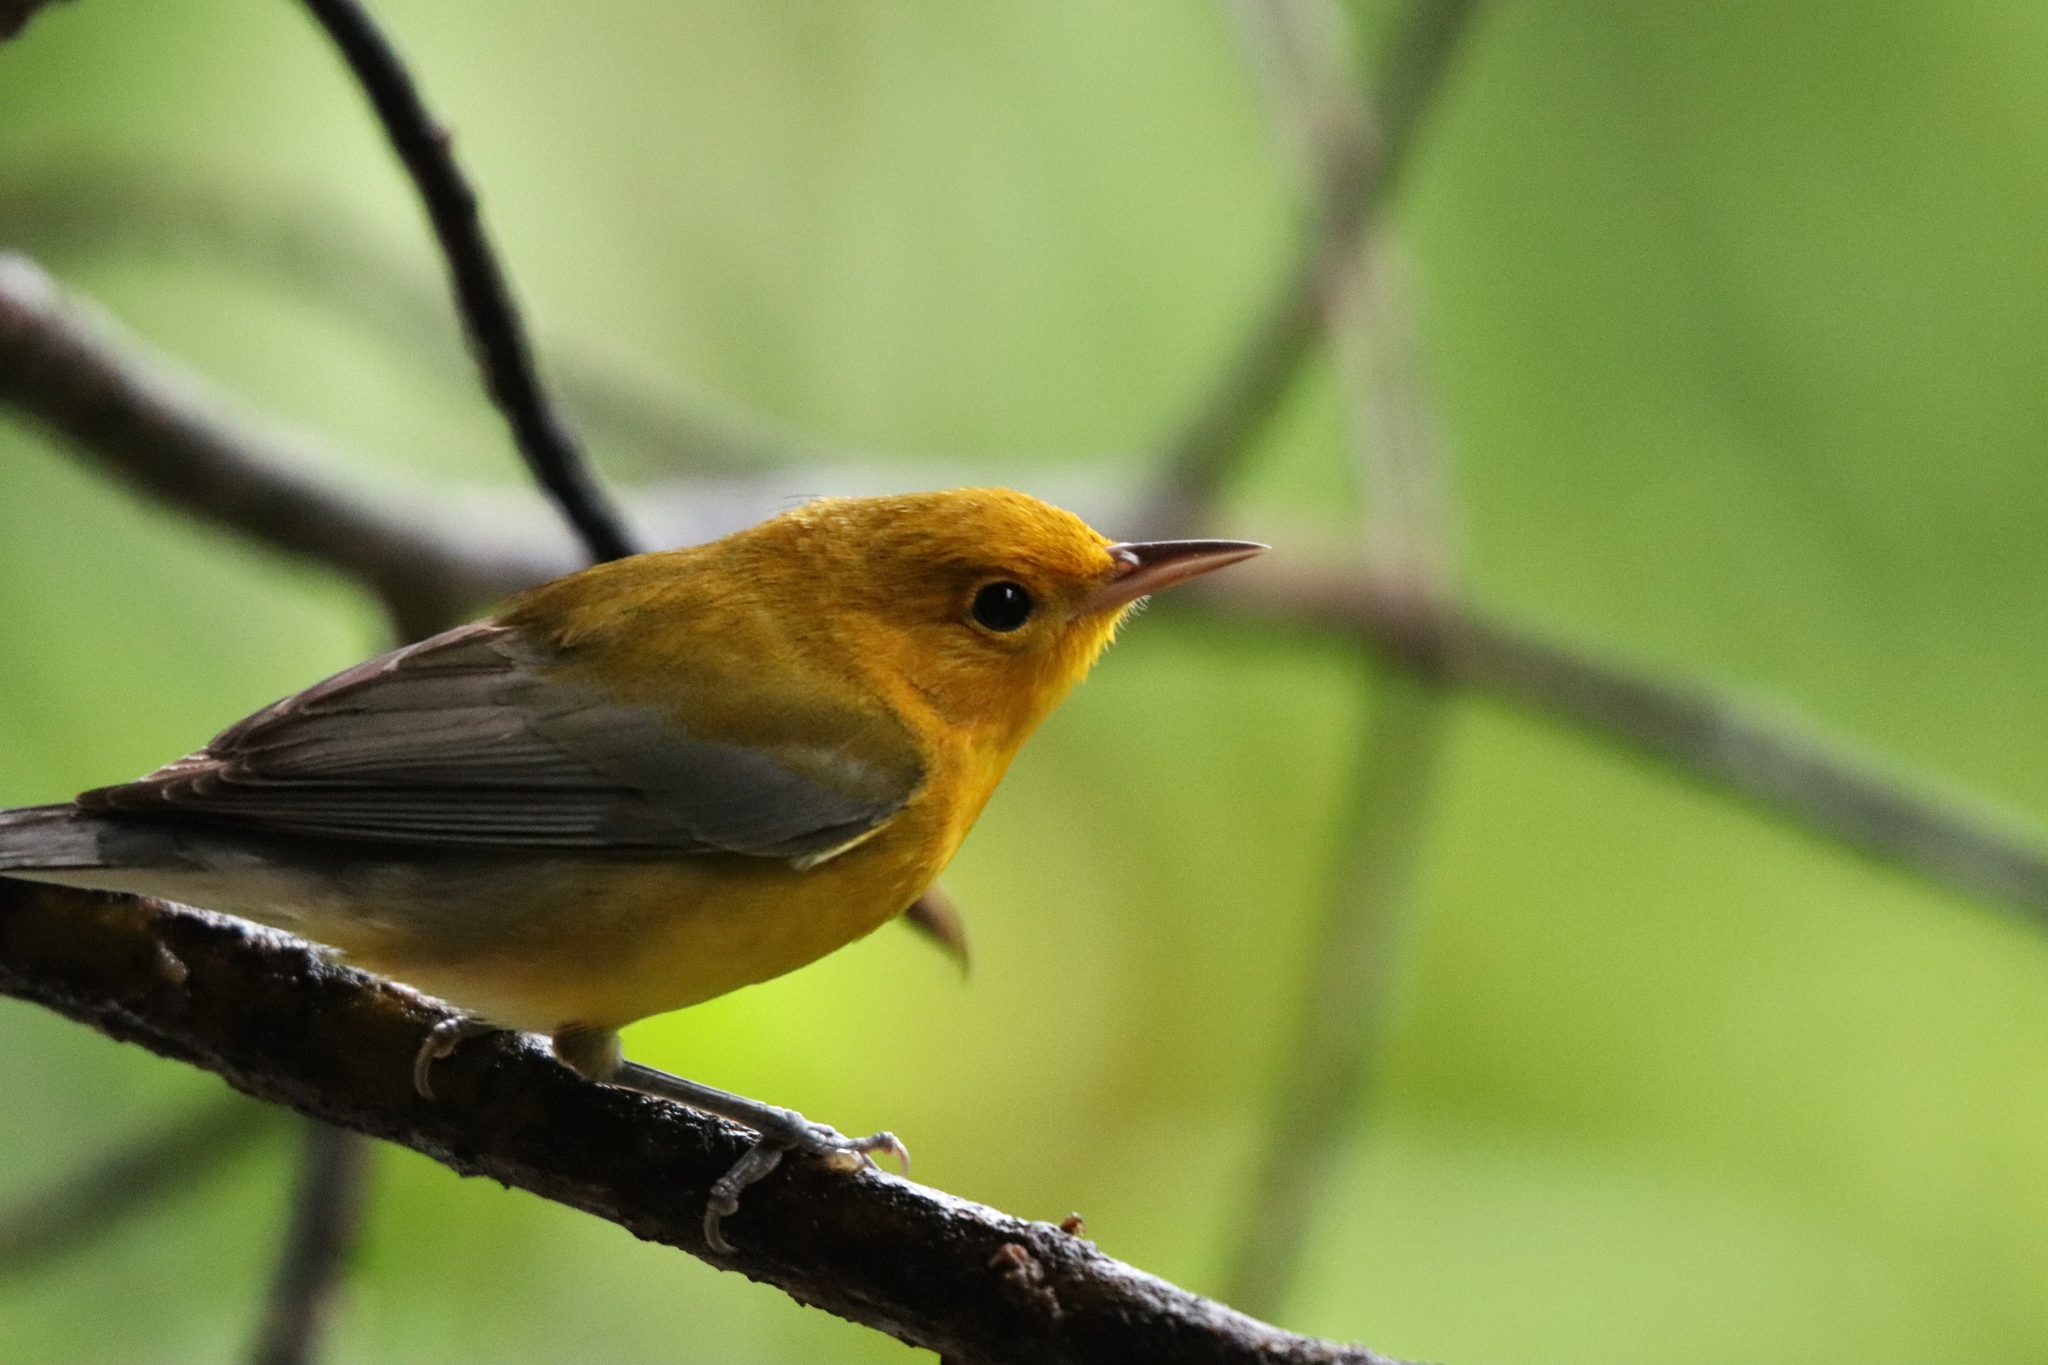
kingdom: Animalia
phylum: Chordata
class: Aves
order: Passeriformes
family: Parulidae
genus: Protonotaria
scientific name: Protonotaria citrea
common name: Prothonotary warbler
